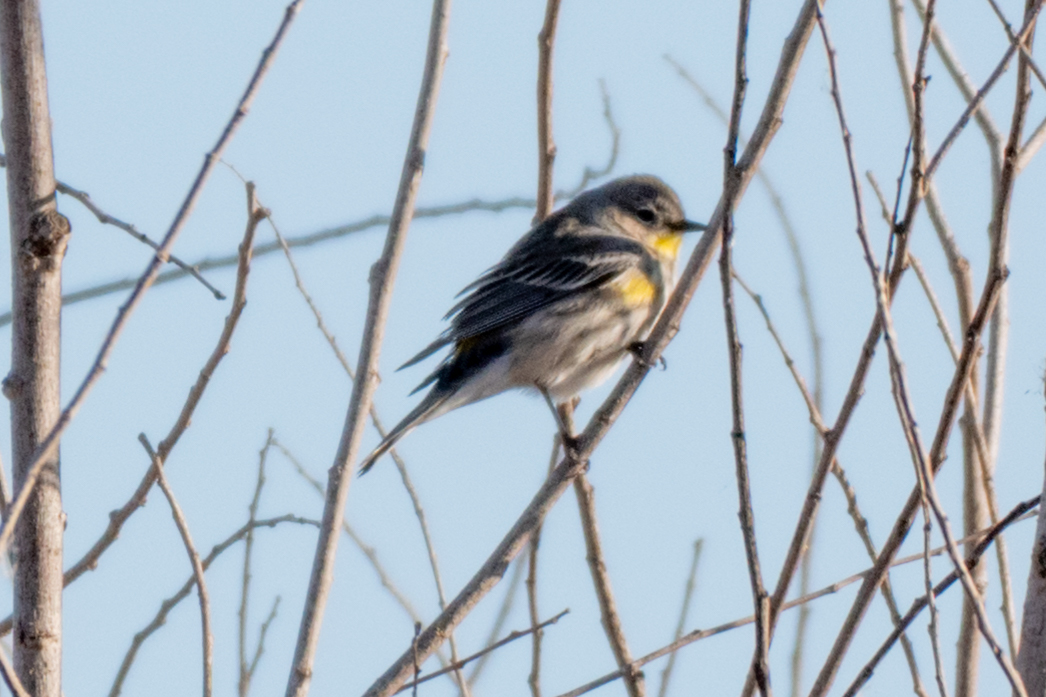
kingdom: Animalia
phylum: Chordata
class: Aves
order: Passeriformes
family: Parulidae
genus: Setophaga
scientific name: Setophaga coronata
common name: Myrtle warbler
